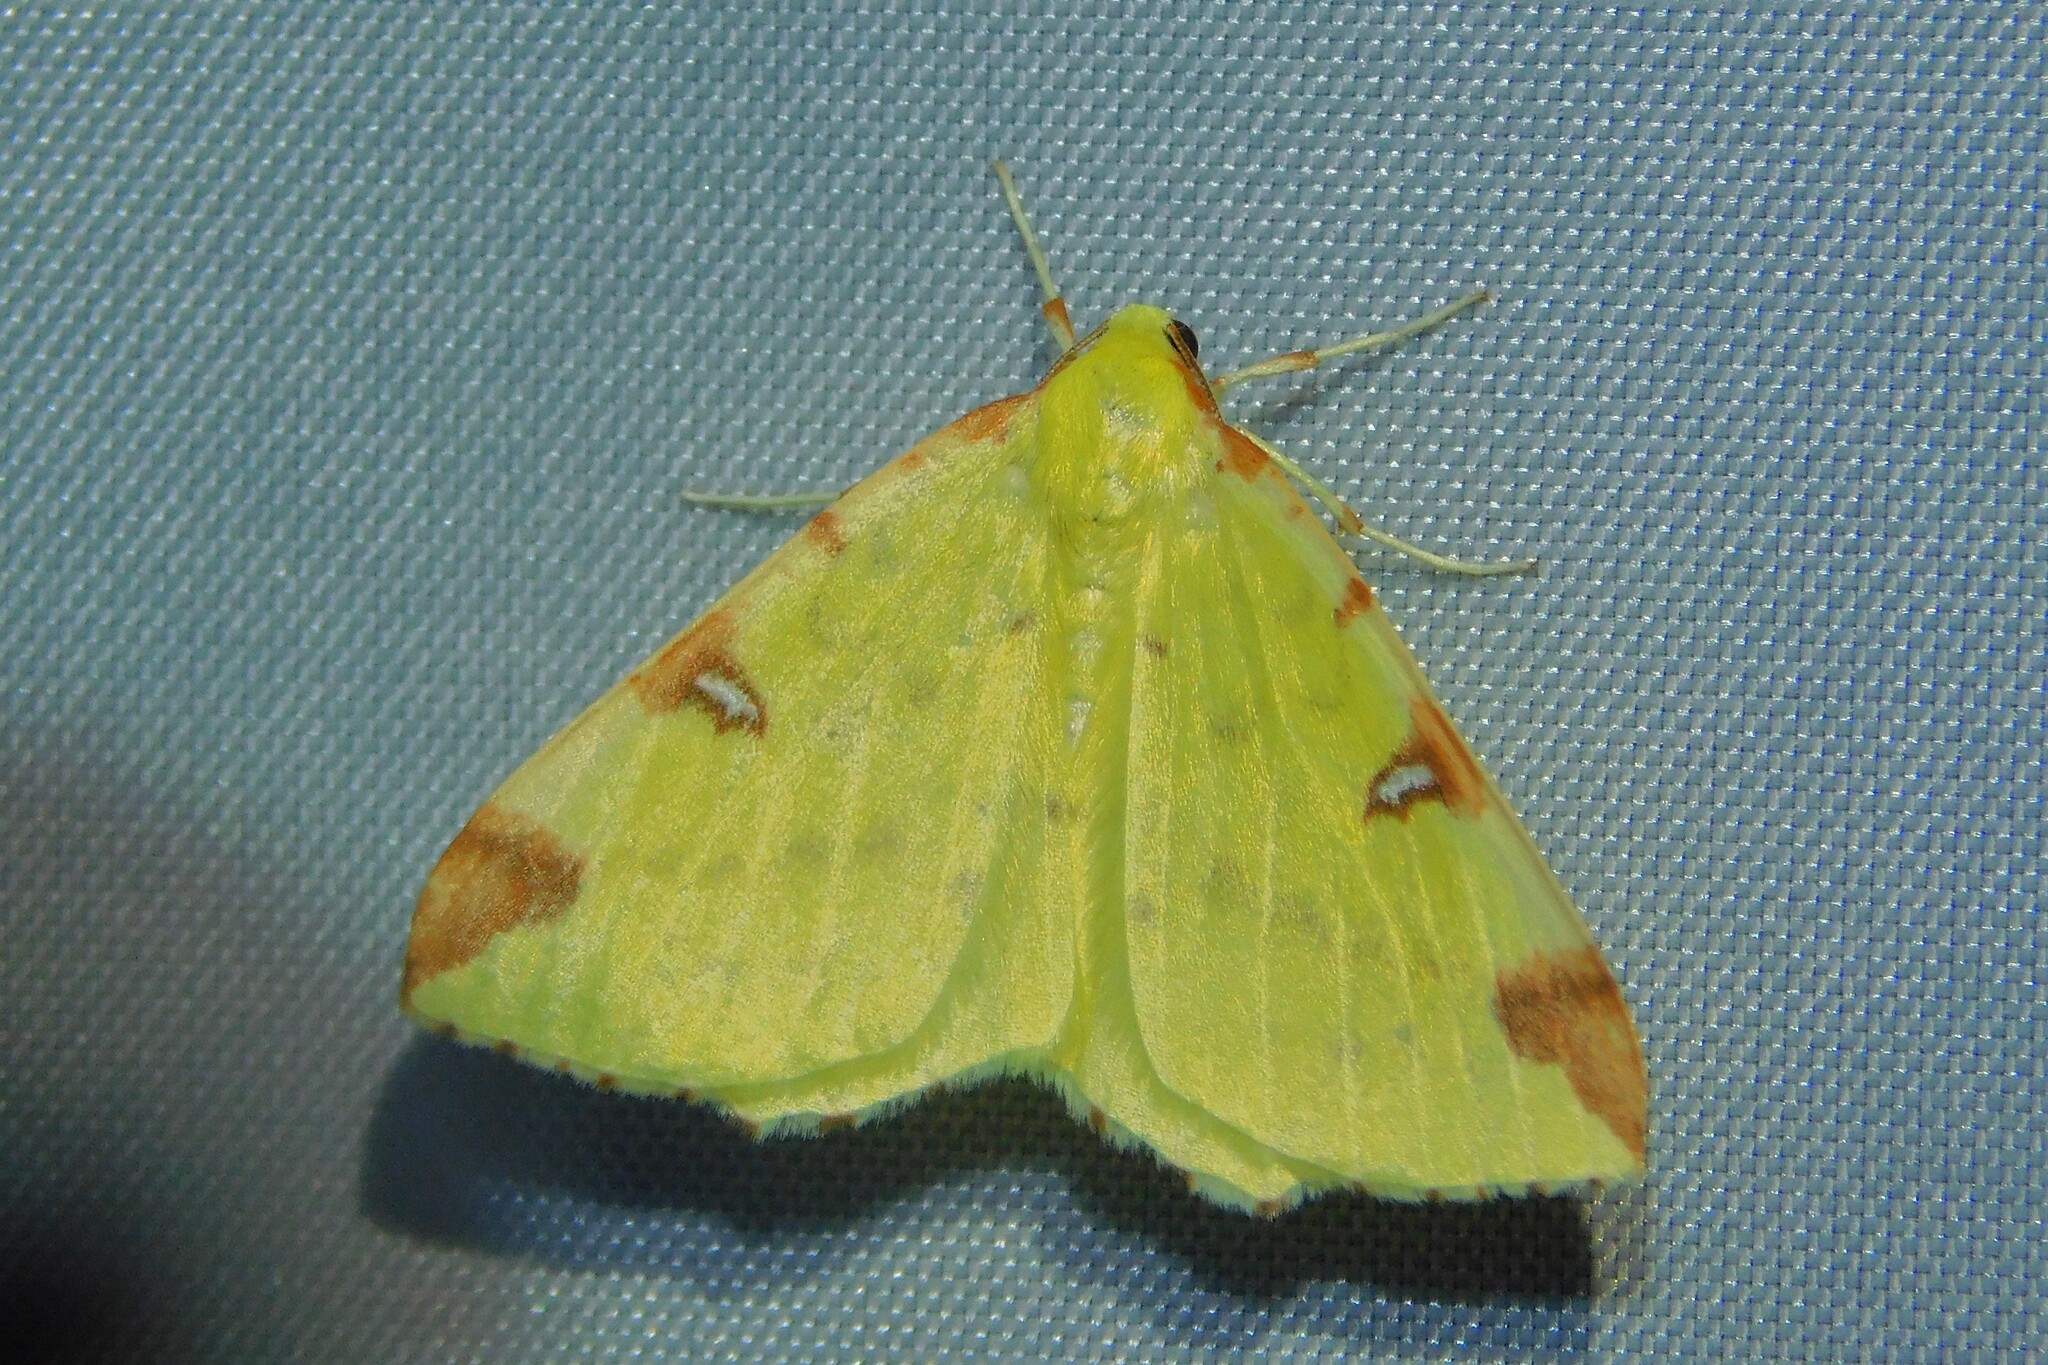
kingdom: Animalia
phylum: Arthropoda
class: Insecta
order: Lepidoptera
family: Geometridae
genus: Opisthograptis
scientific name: Opisthograptis luteolata
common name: Brimstone moth
